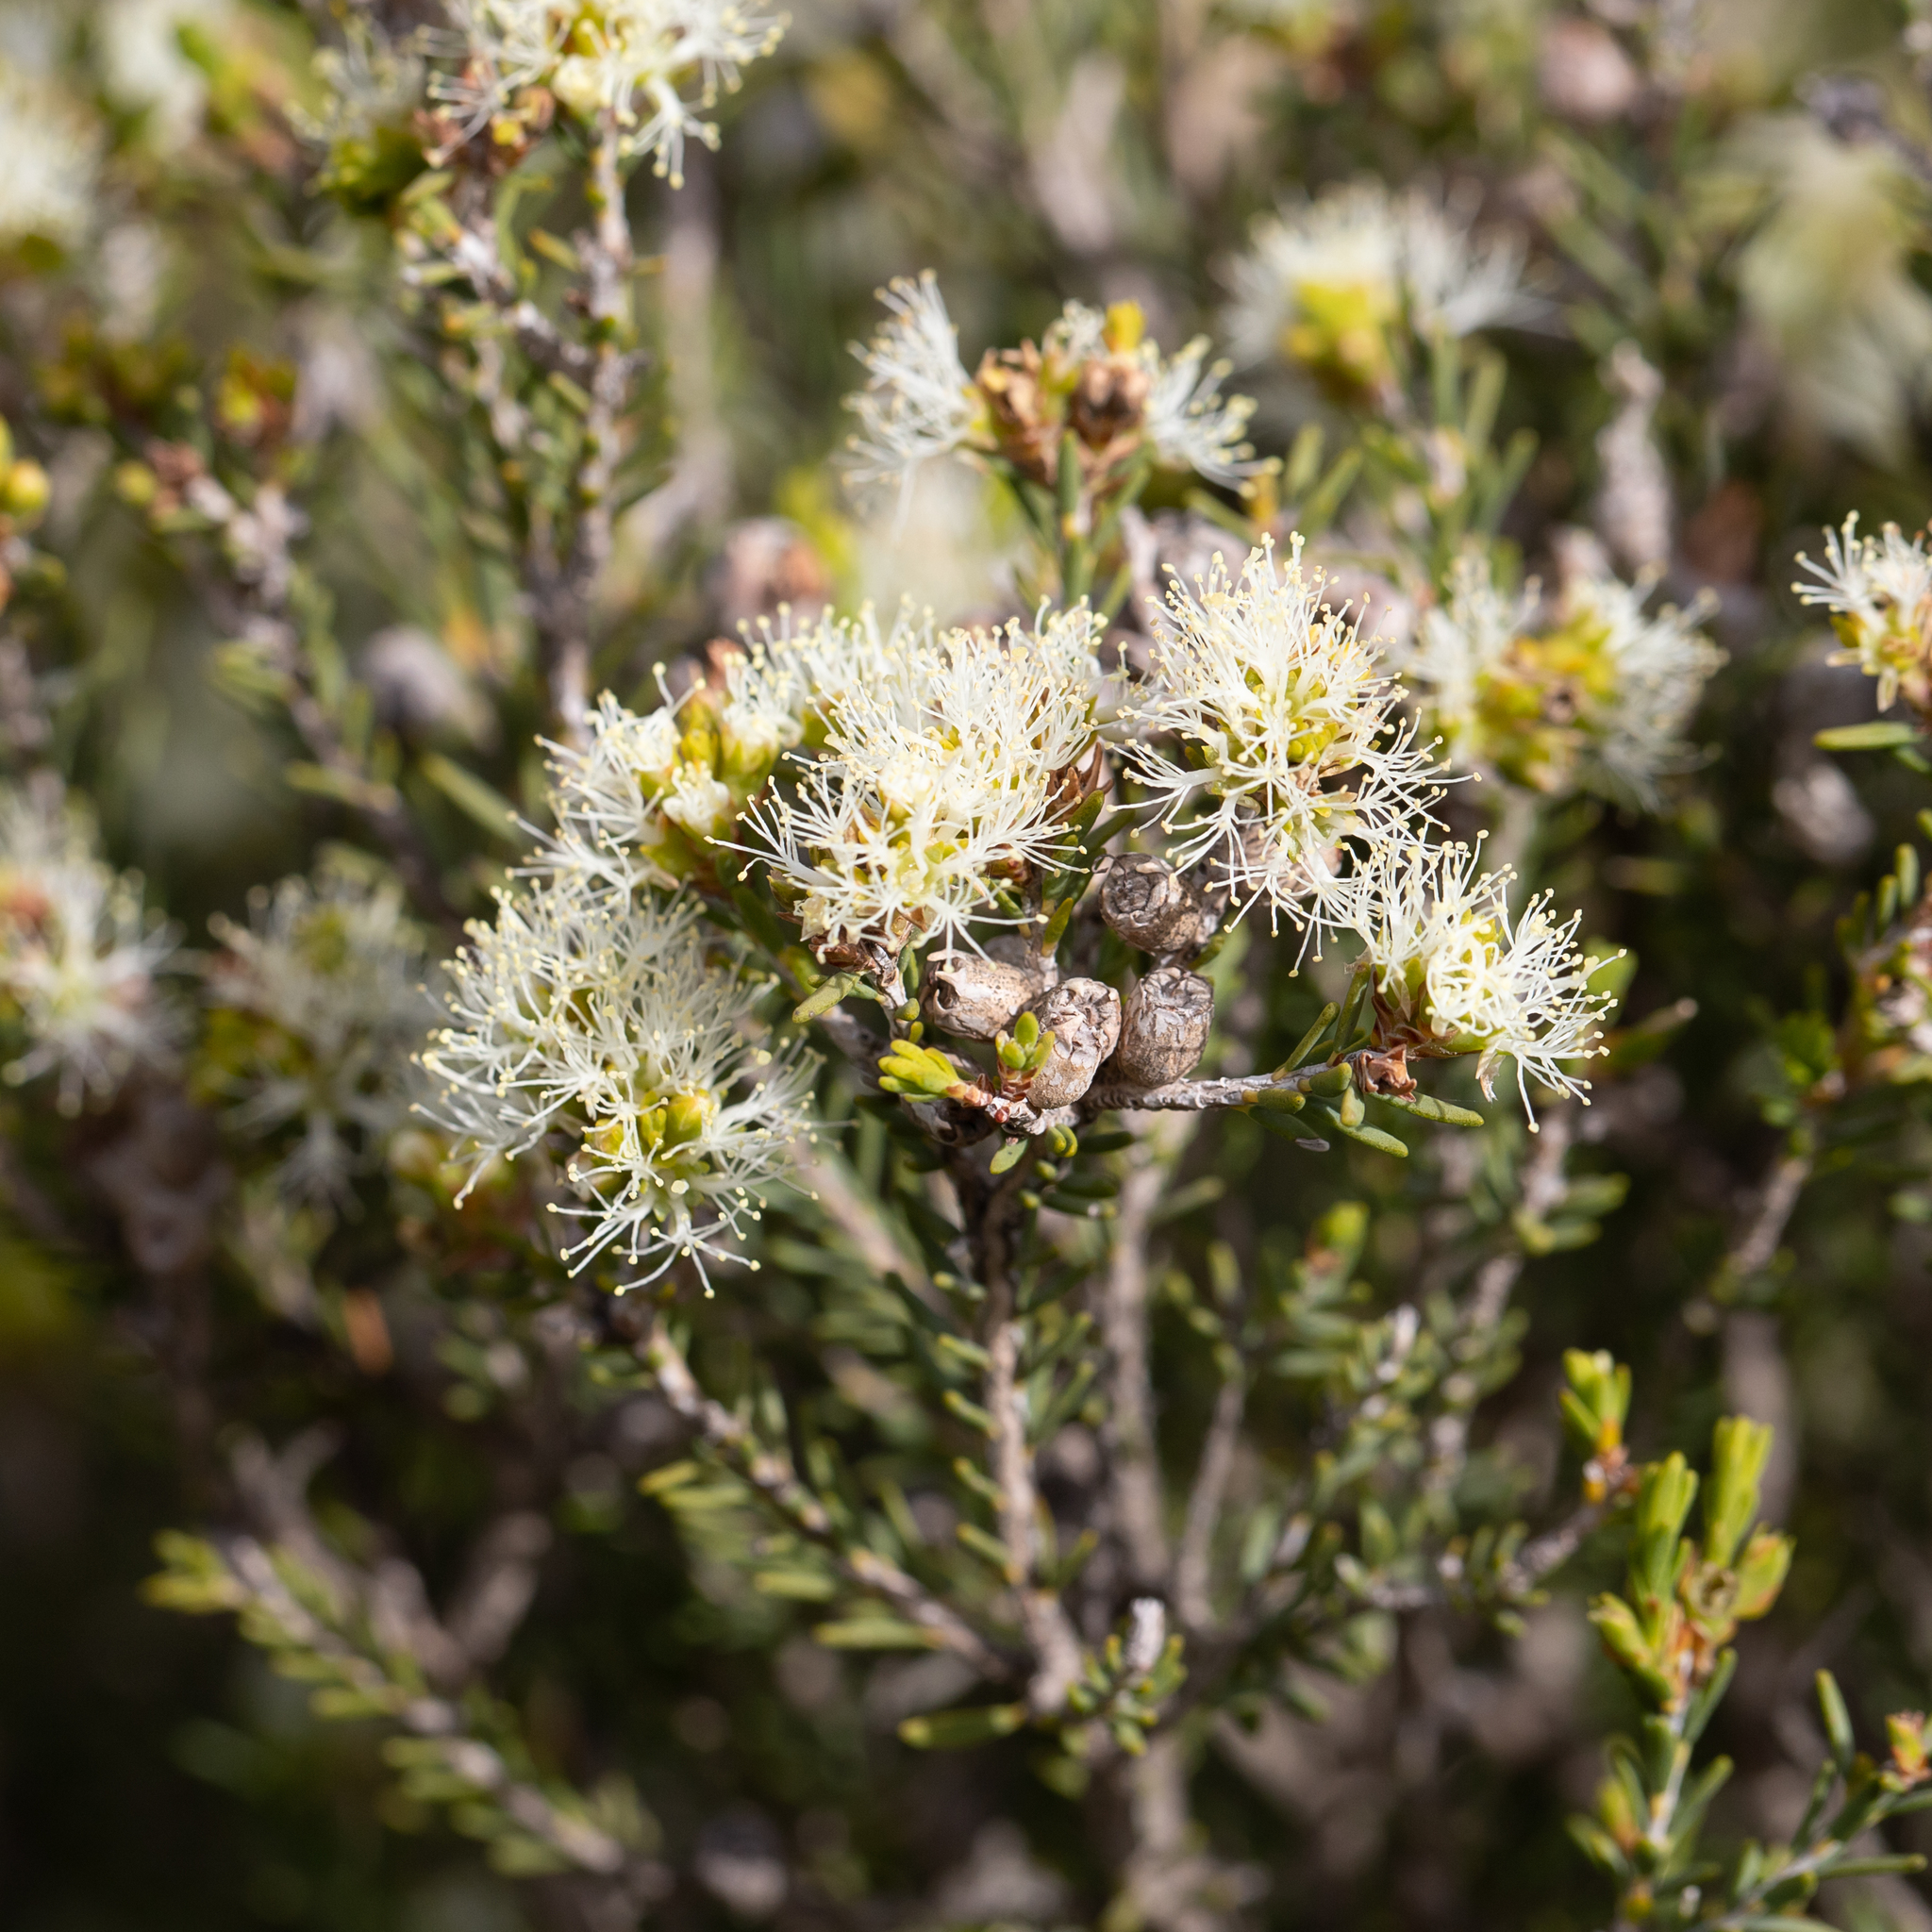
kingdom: Plantae
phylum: Tracheophyta
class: Magnoliopsida
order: Myrtales
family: Myrtaceae
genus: Melaleuca
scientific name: Melaleuca halmaturorum
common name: Coastal paper-bark
